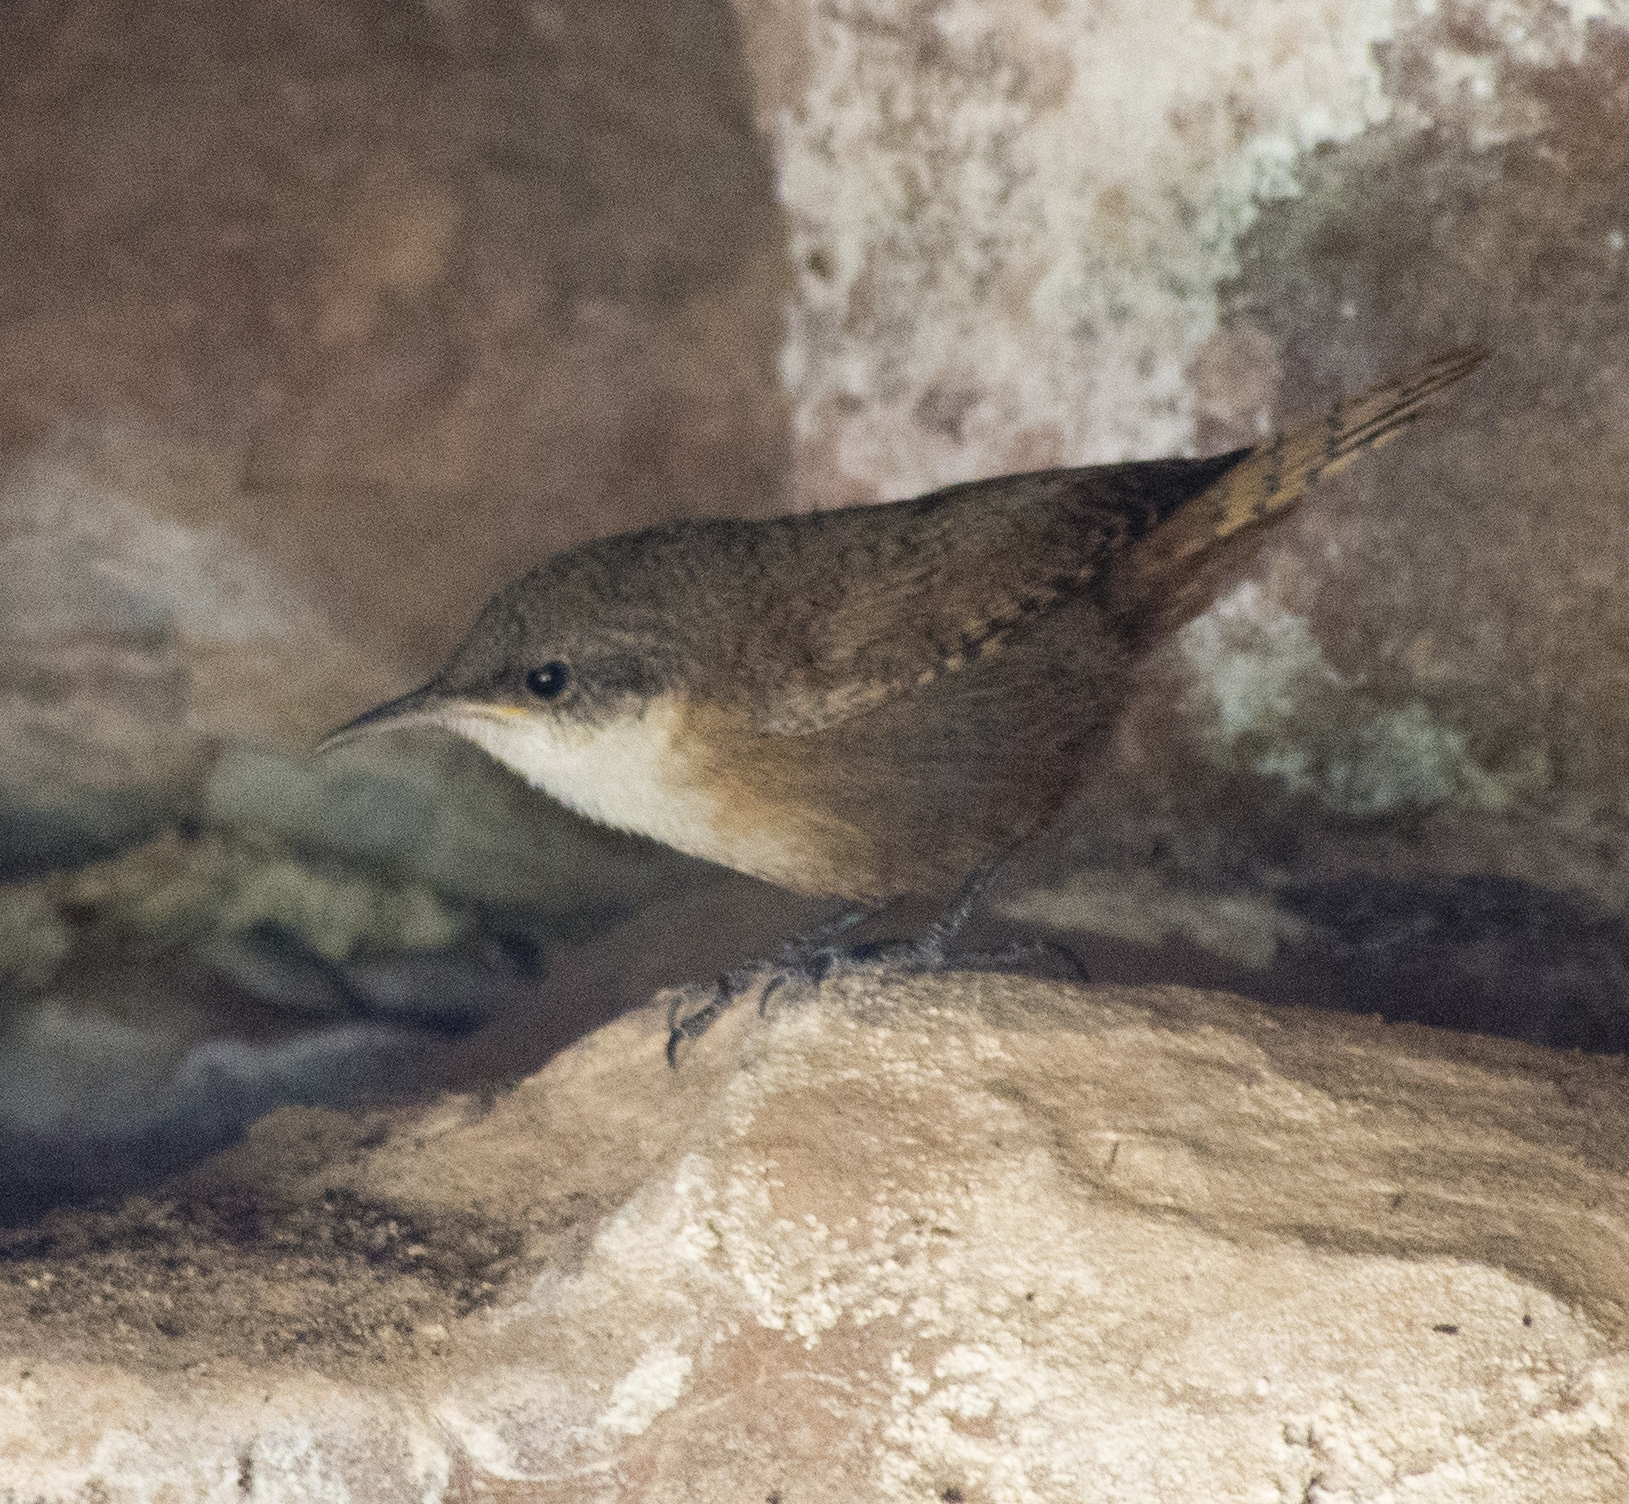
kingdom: Animalia
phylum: Chordata
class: Aves
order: Passeriformes
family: Troglodytidae
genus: Catherpes
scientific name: Catherpes mexicanus
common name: Canyon wren
